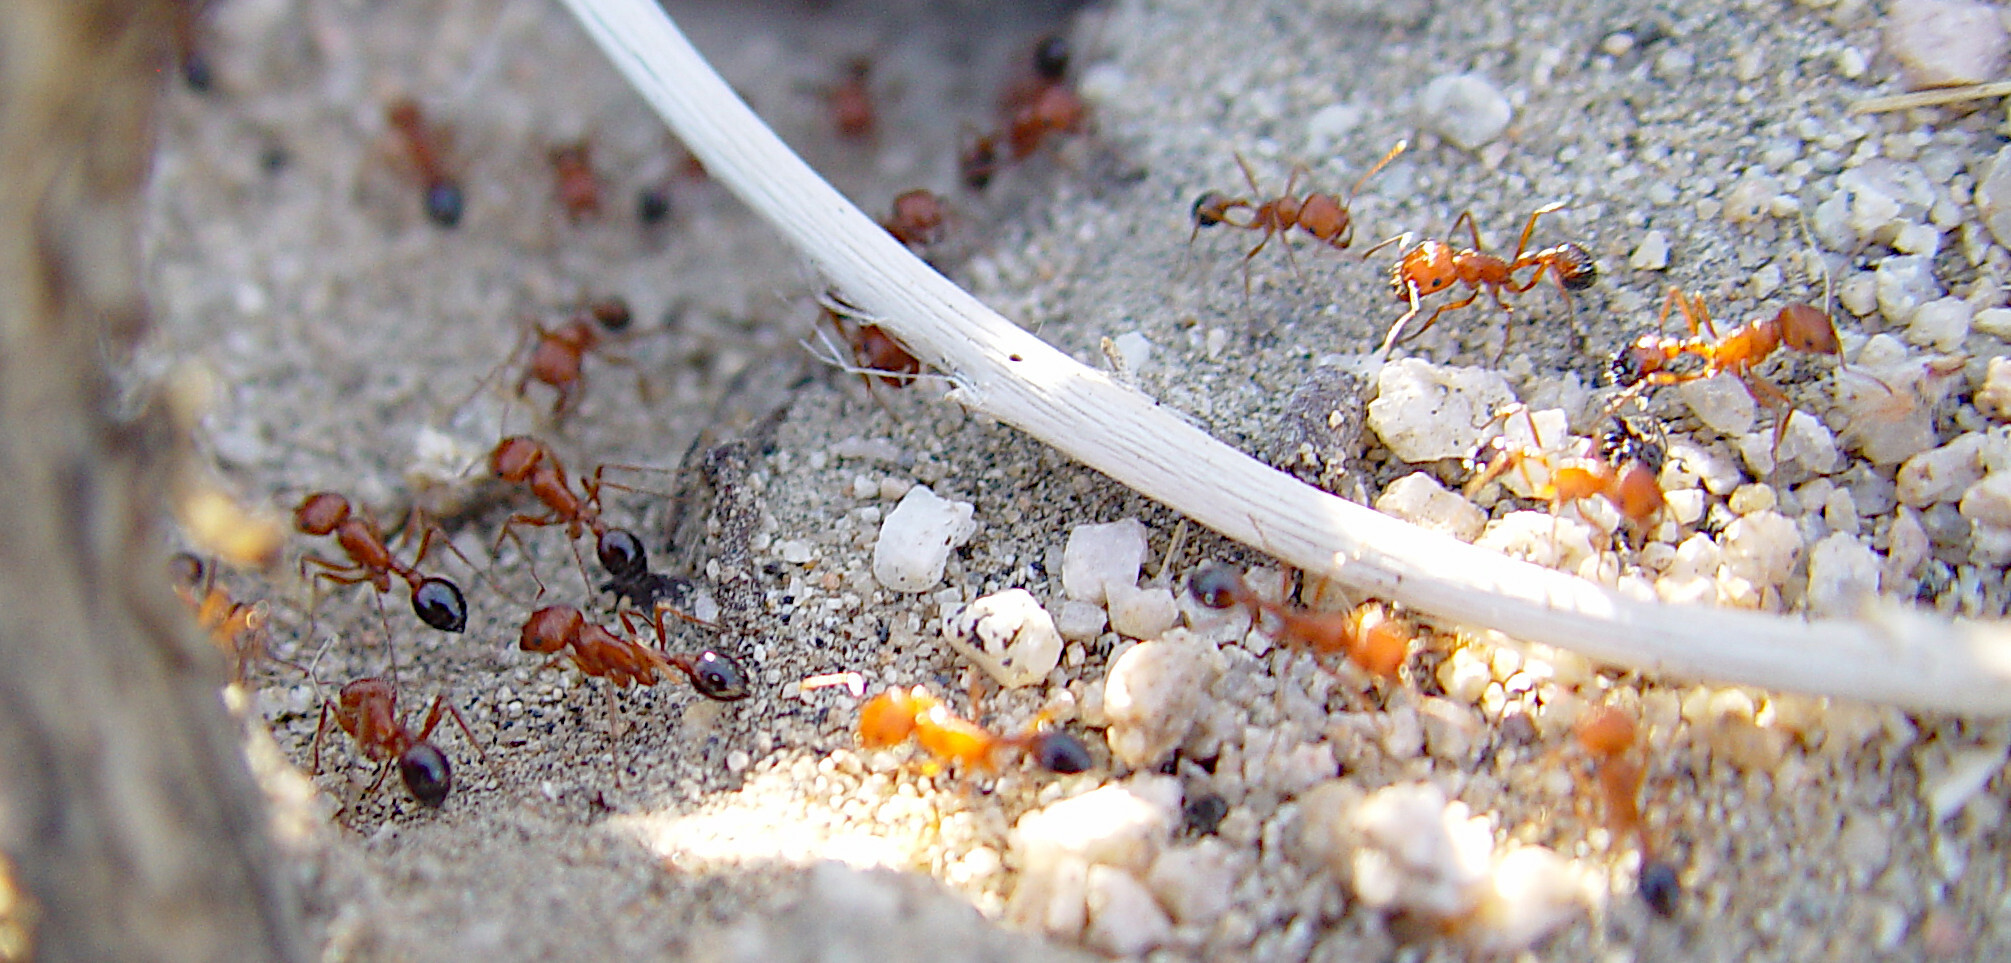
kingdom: Animalia
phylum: Arthropoda
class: Insecta
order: Hymenoptera
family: Formicidae
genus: Pogonomyrmex
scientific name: Pogonomyrmex
